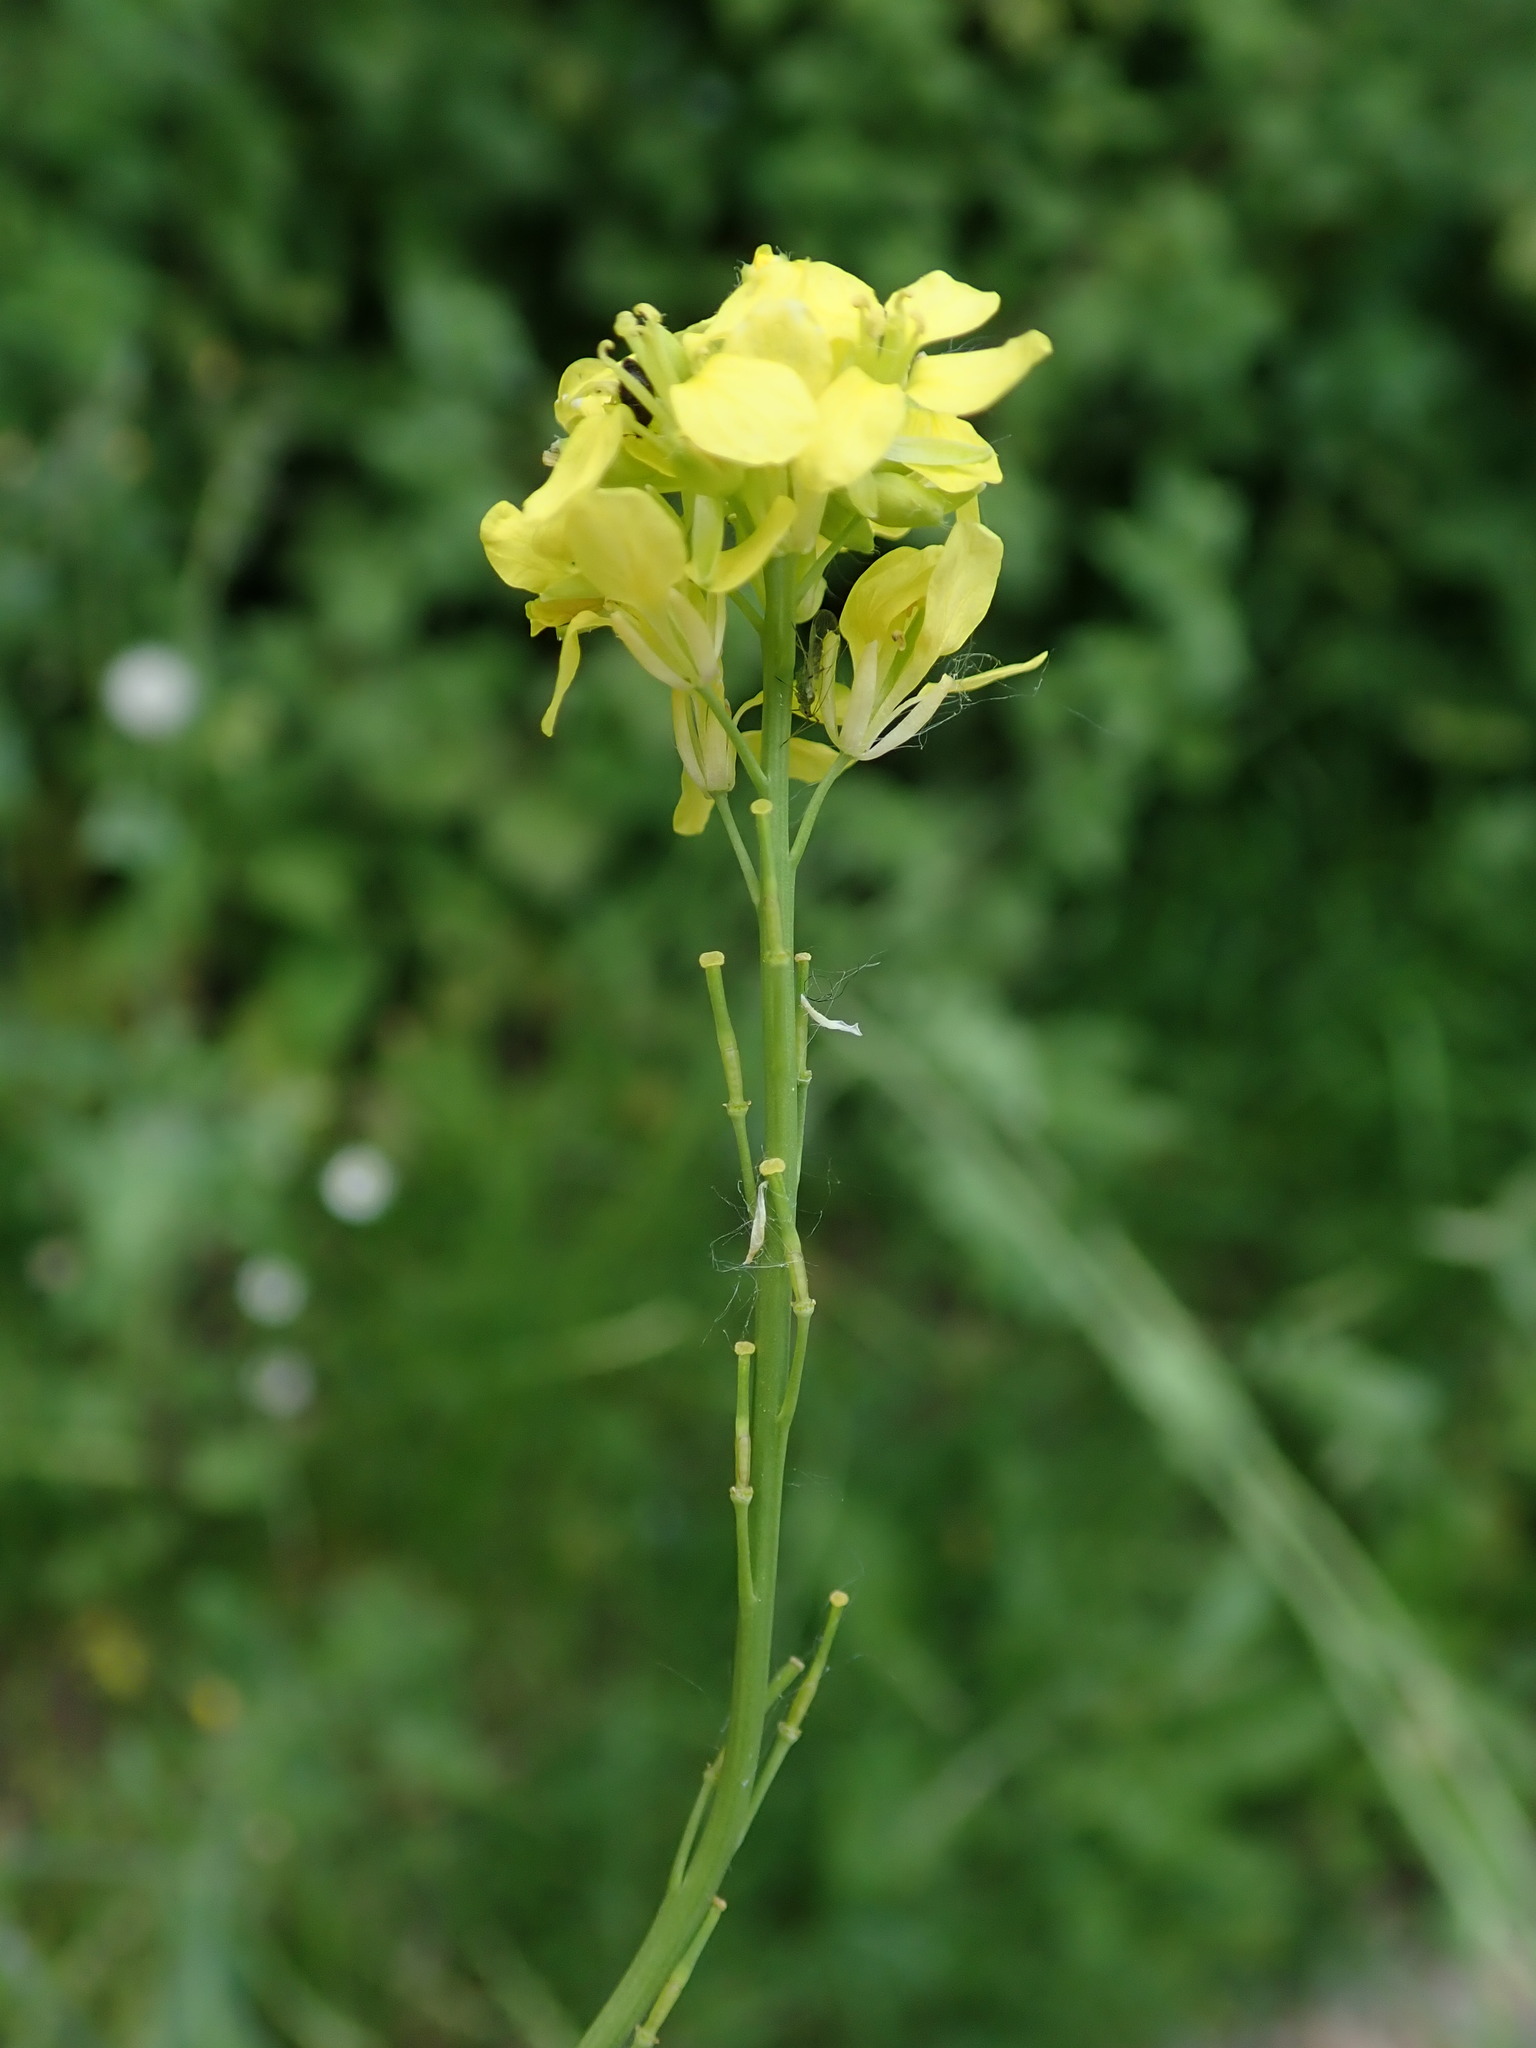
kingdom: Plantae
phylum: Tracheophyta
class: Magnoliopsida
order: Brassicales
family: Brassicaceae
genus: Hirschfeldia
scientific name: Hirschfeldia incana
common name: Hoary mustard
